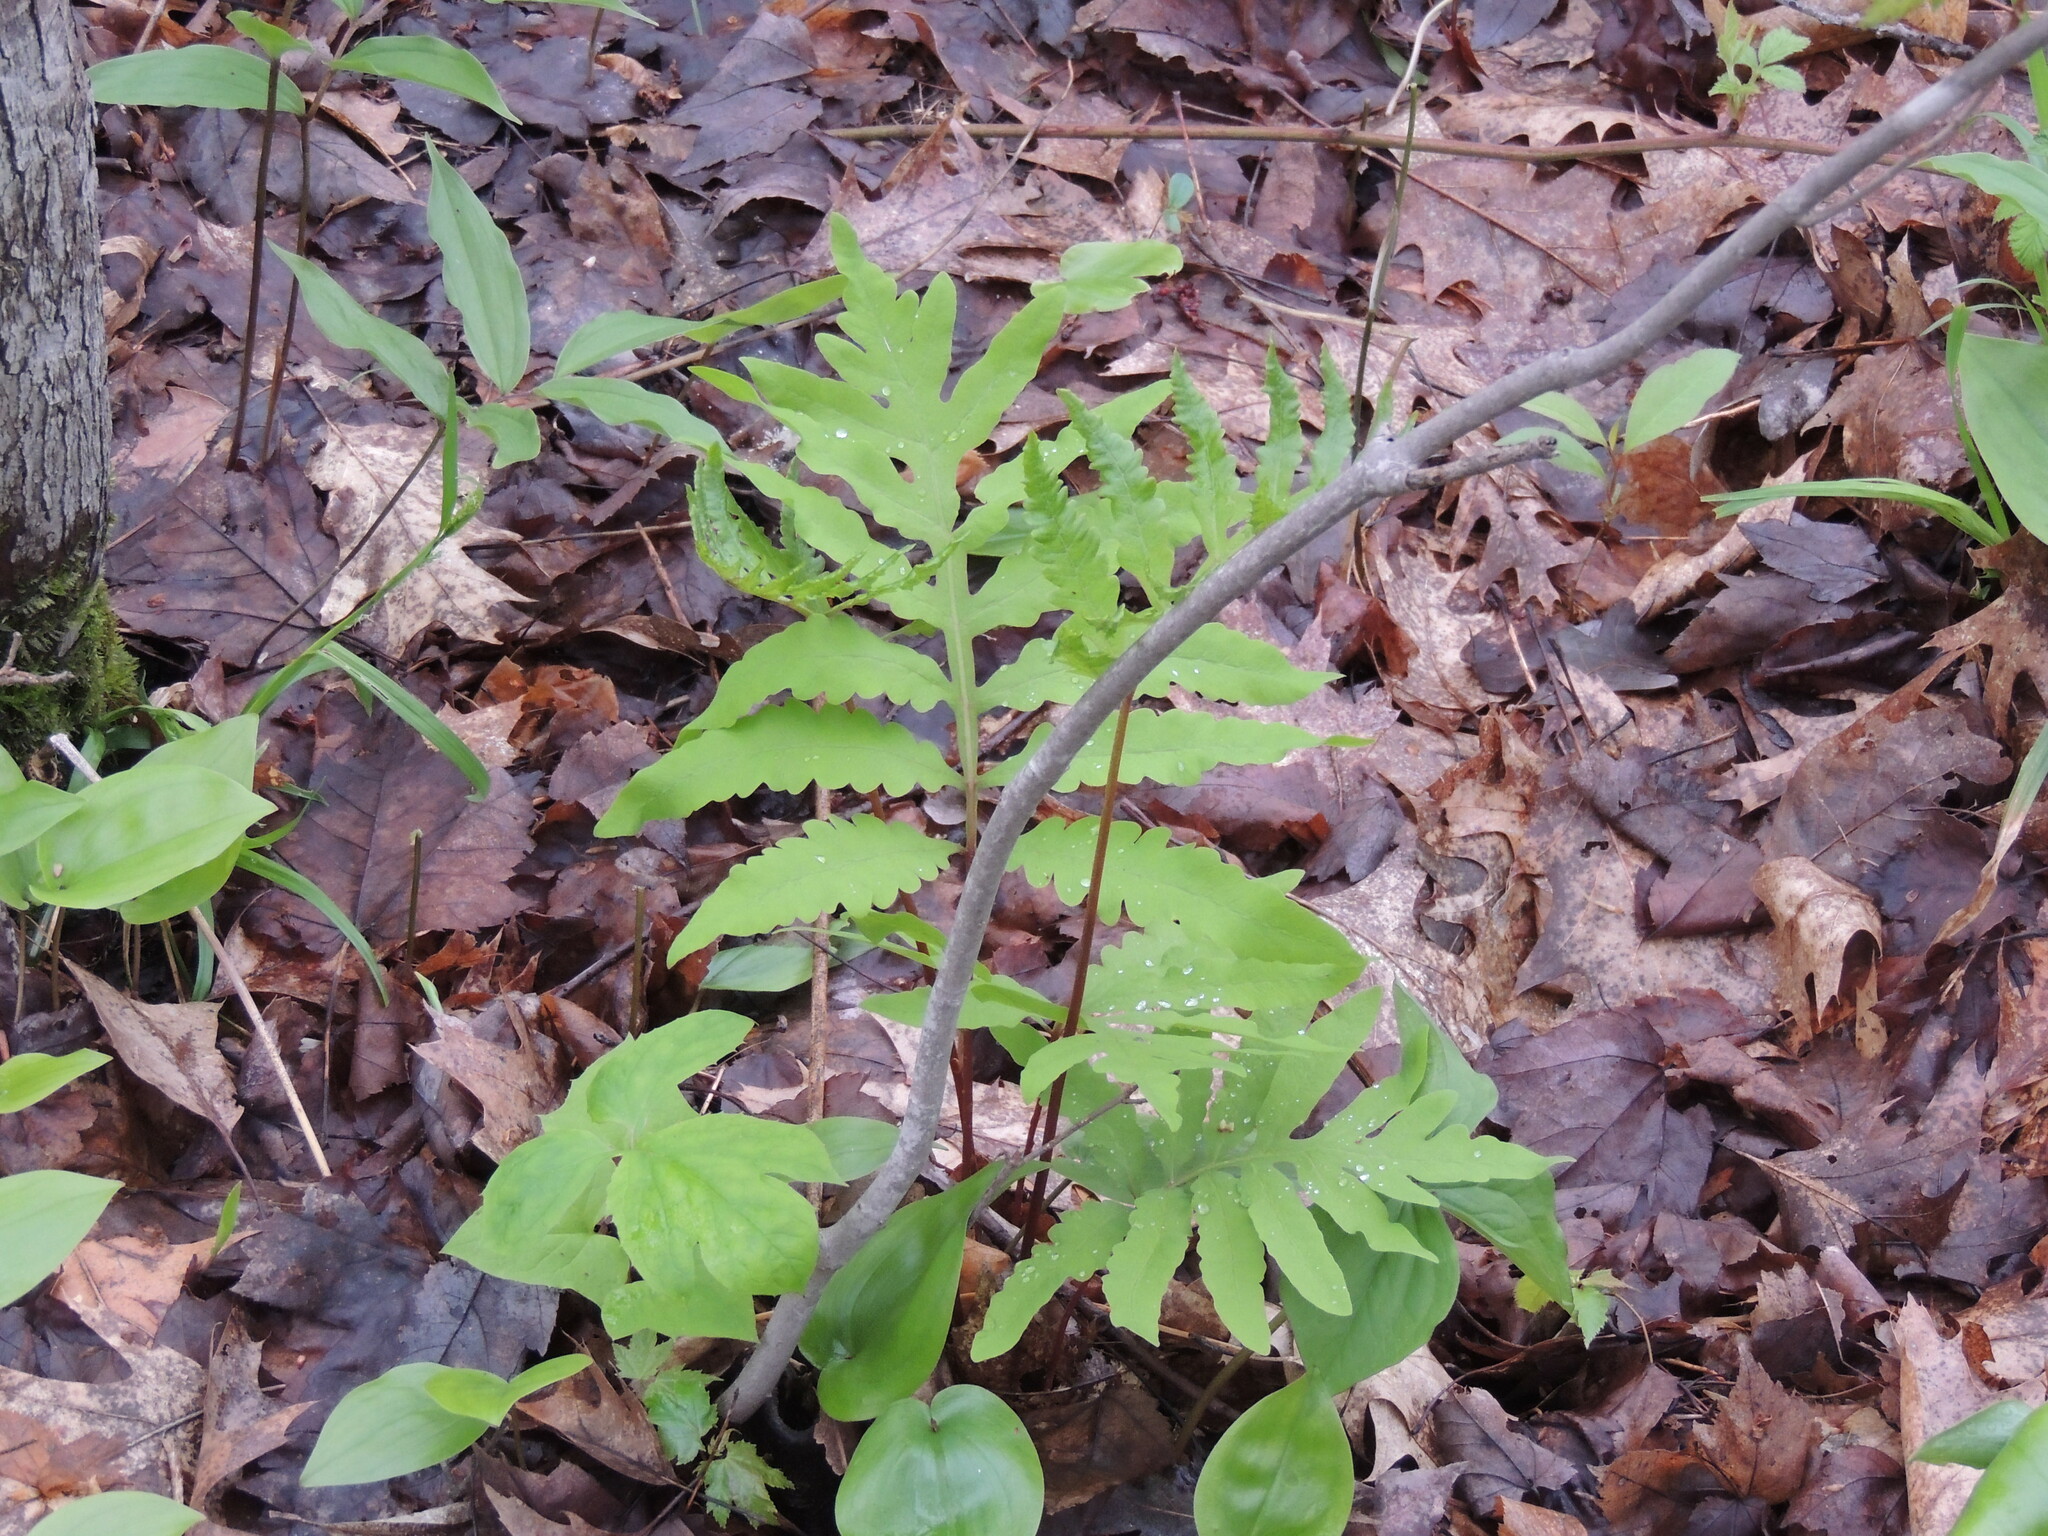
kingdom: Plantae
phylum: Tracheophyta
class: Polypodiopsida
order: Polypodiales
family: Onocleaceae
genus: Onoclea
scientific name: Onoclea sensibilis
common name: Sensitive fern
